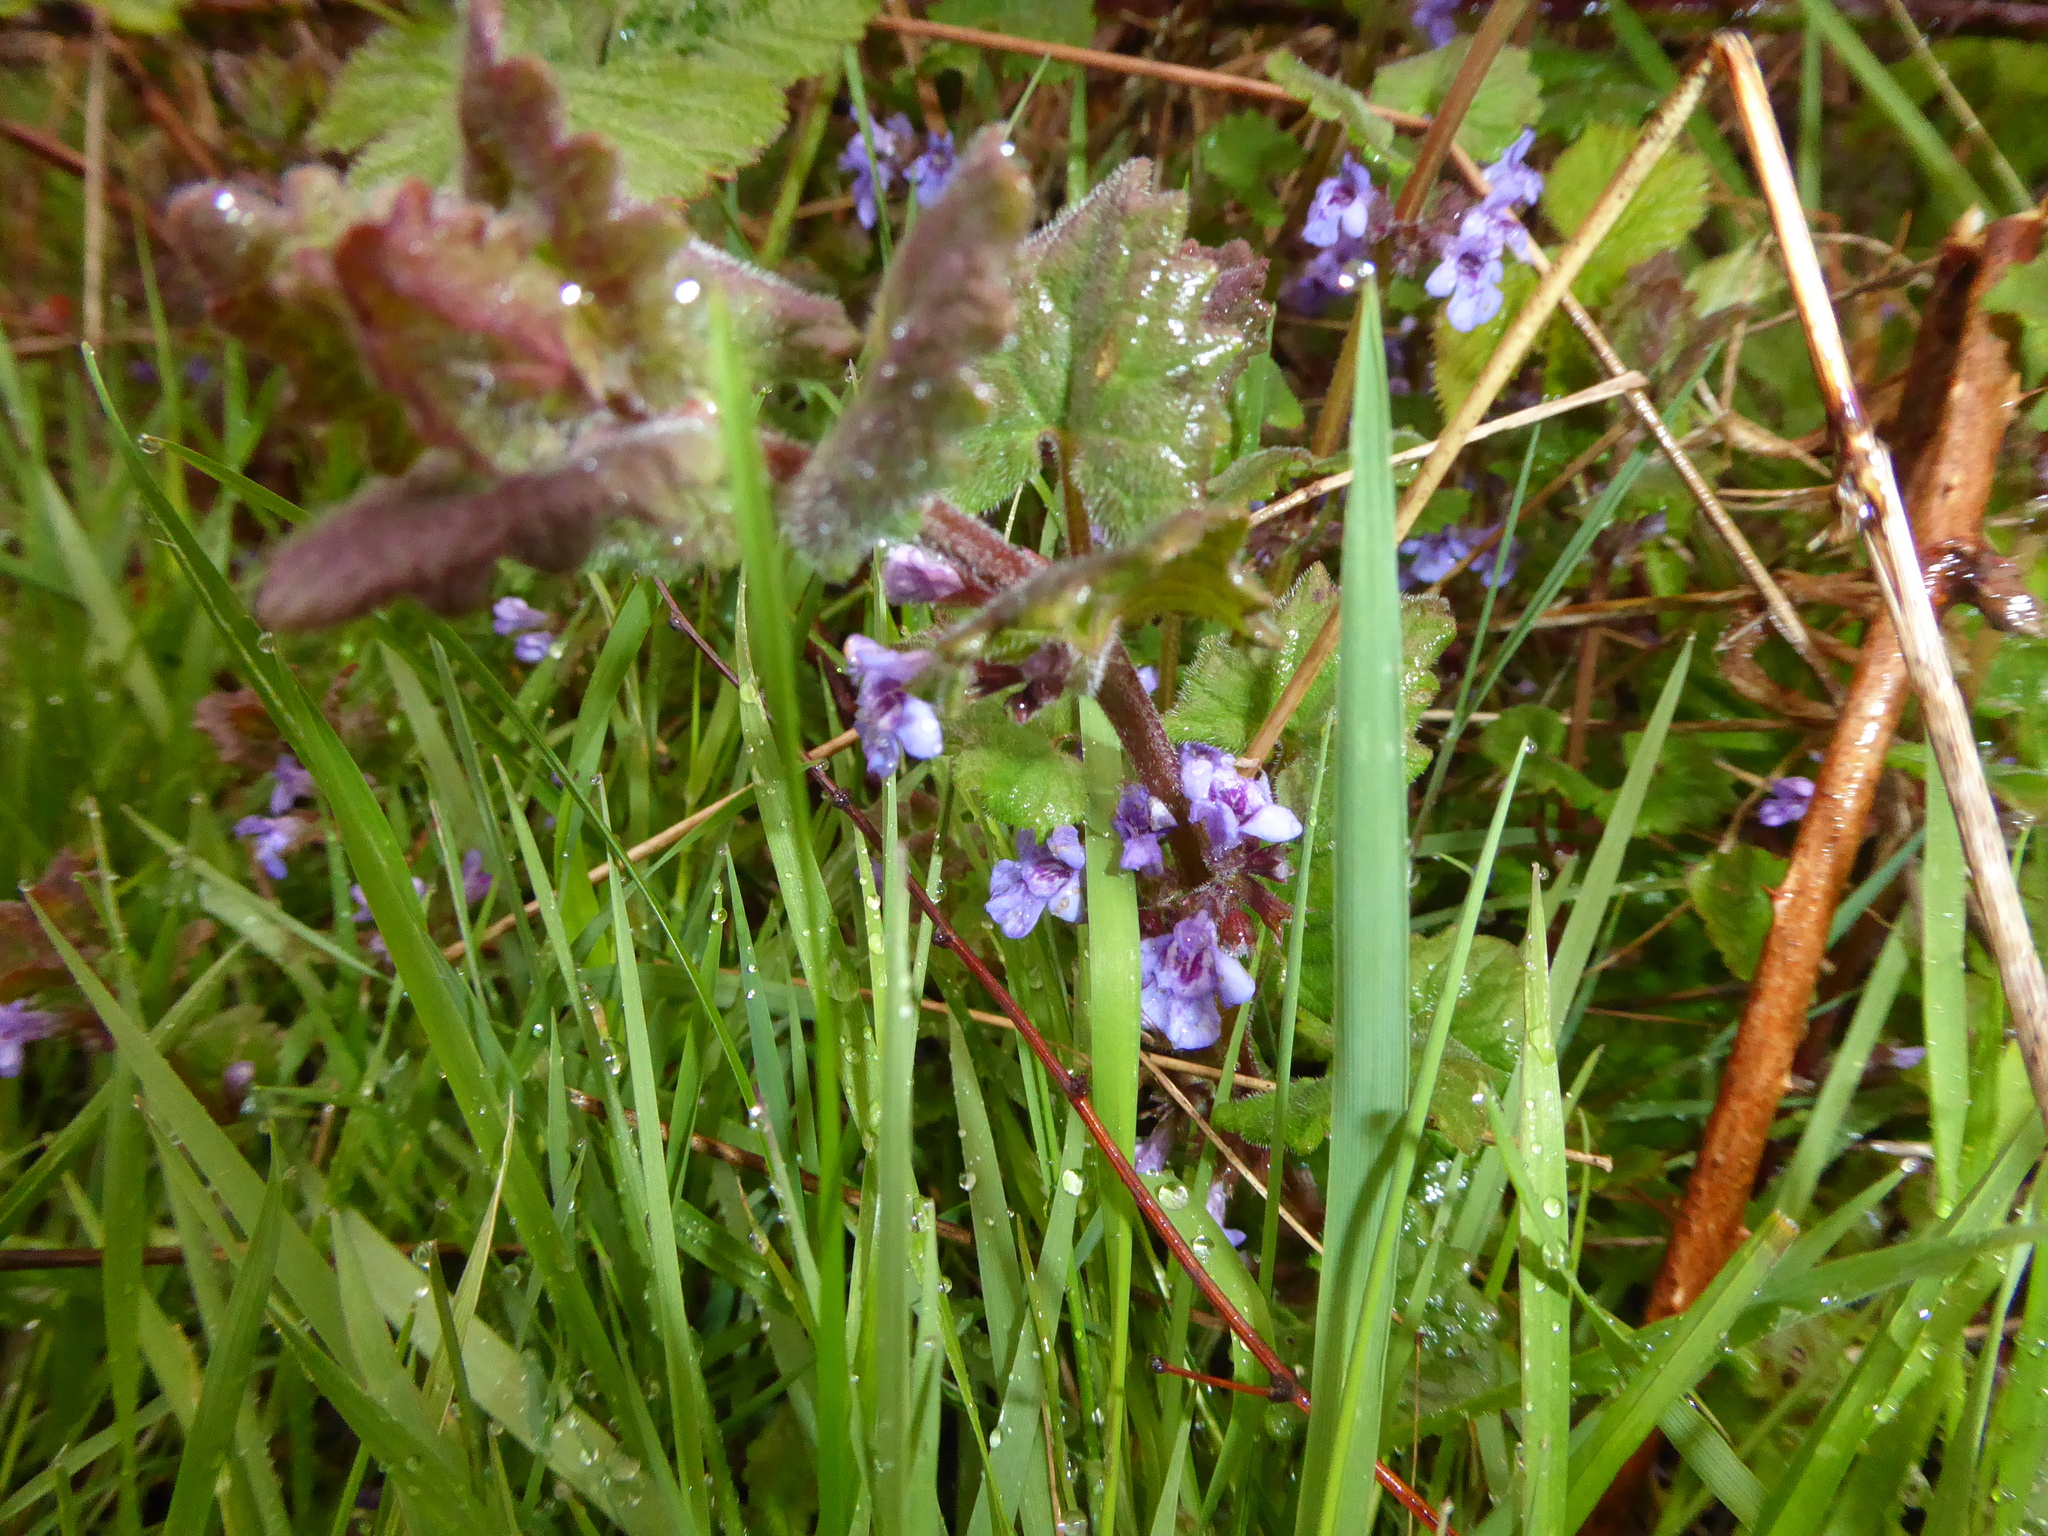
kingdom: Plantae
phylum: Tracheophyta
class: Magnoliopsida
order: Lamiales
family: Lamiaceae
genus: Glechoma
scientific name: Glechoma hederacea
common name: Ground ivy
